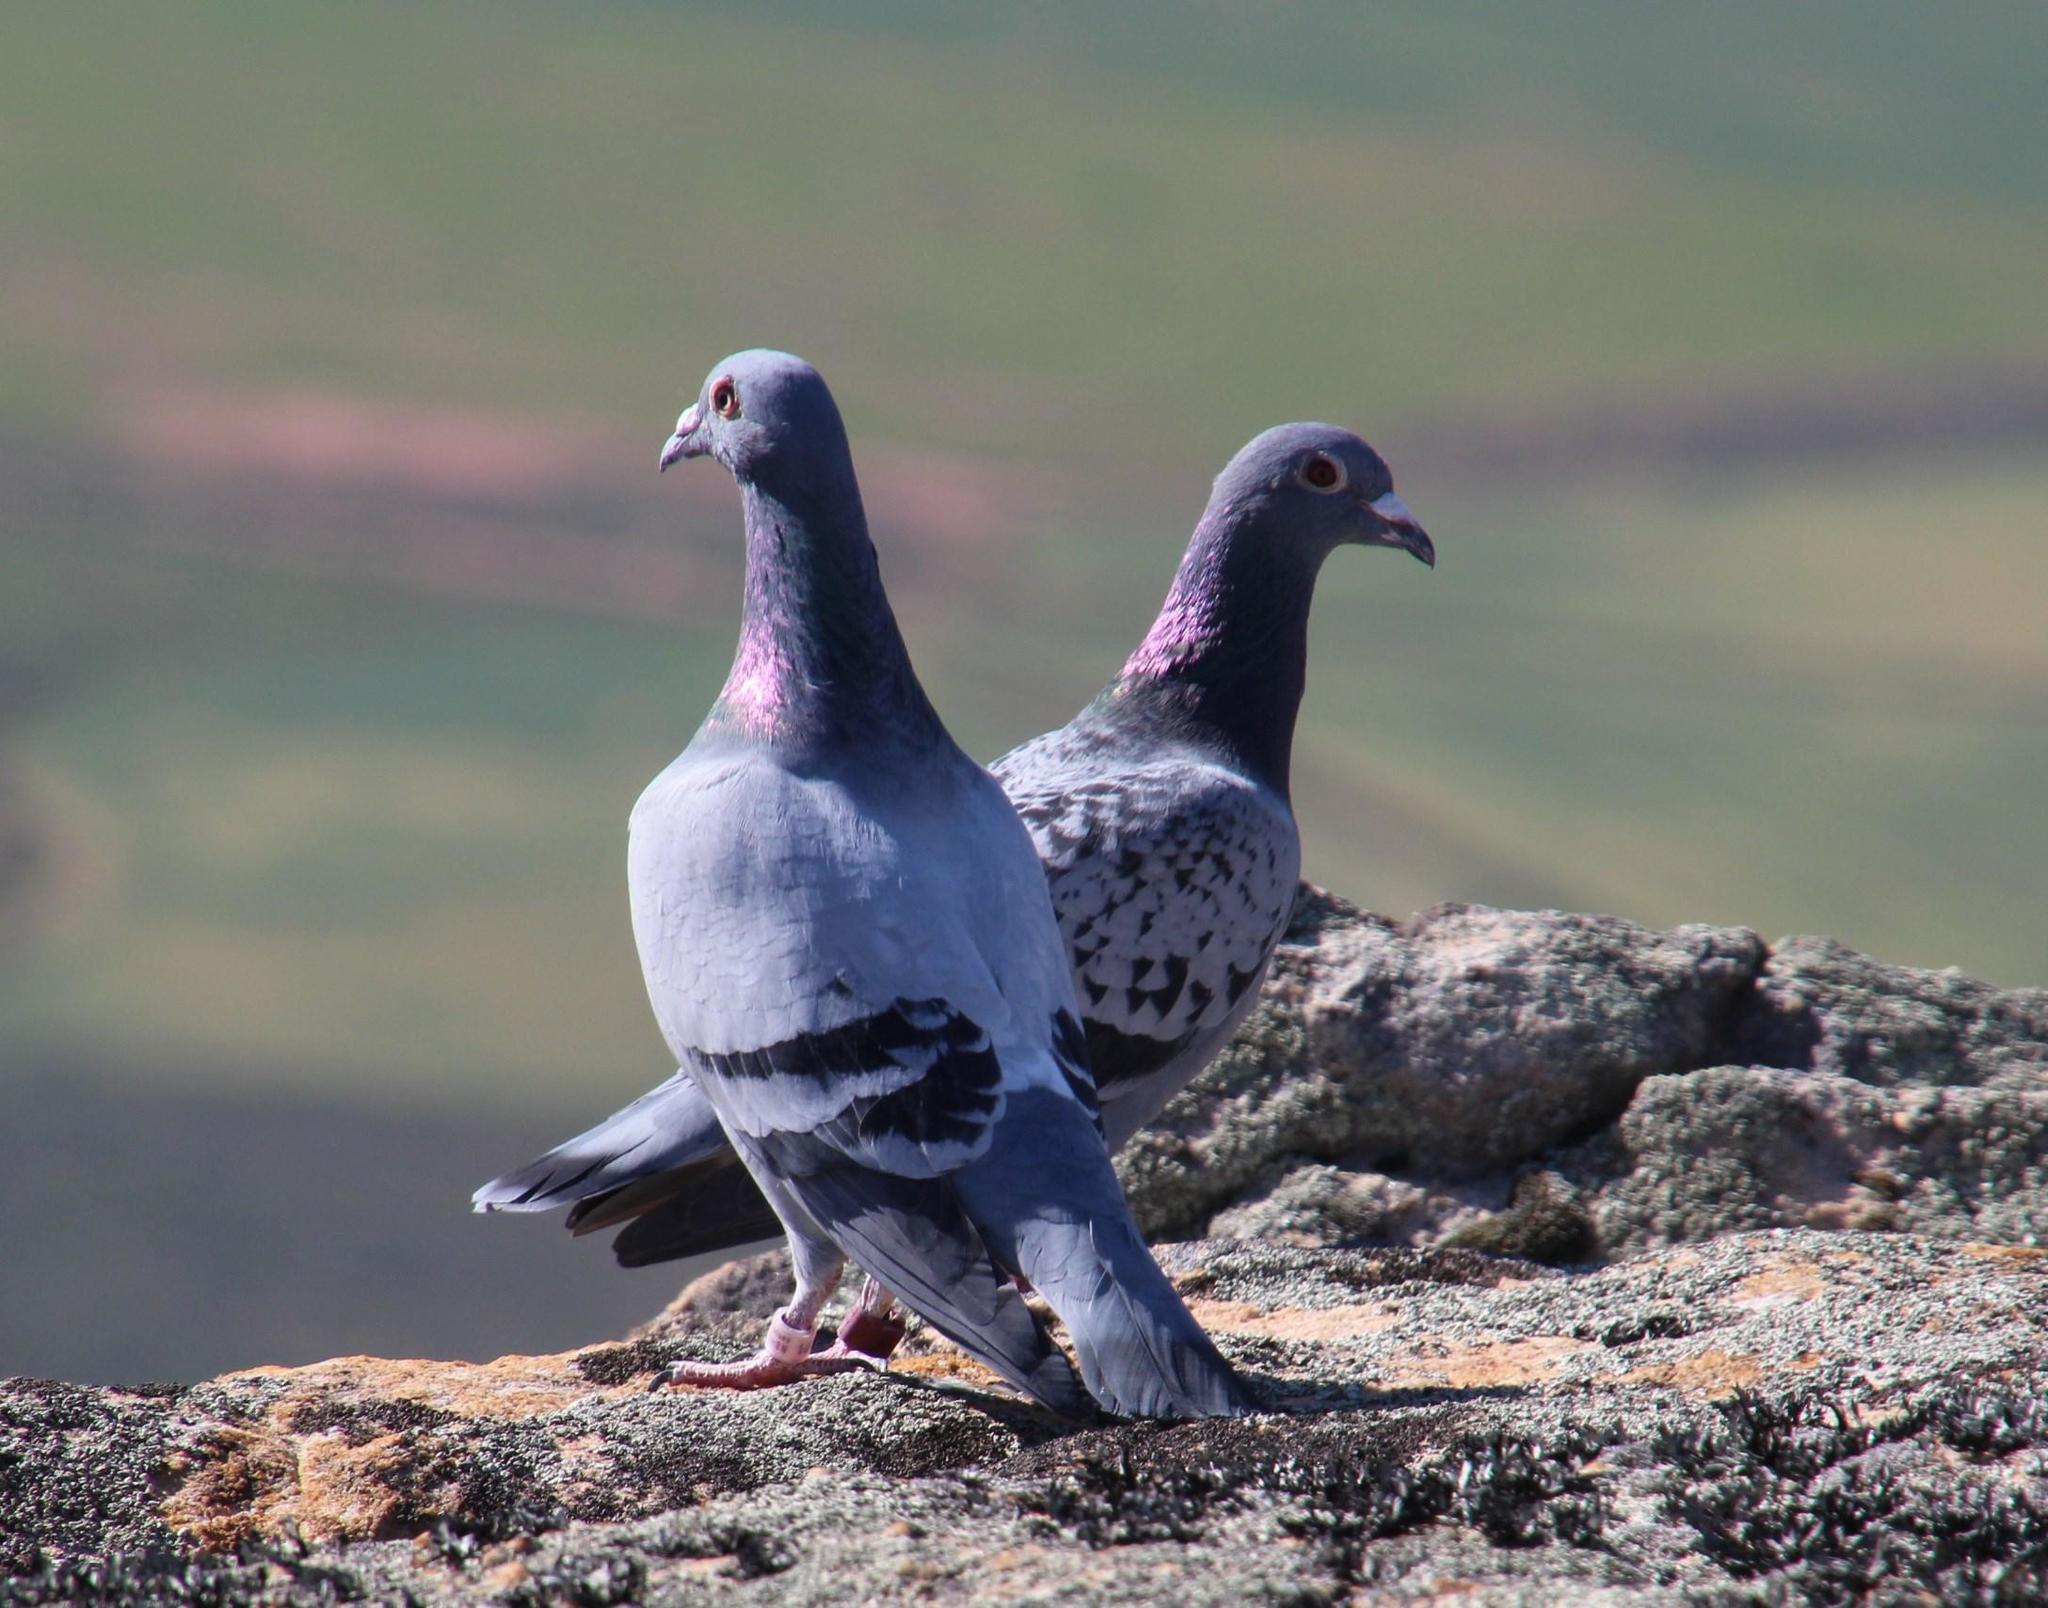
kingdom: Animalia
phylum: Chordata
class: Aves
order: Columbiformes
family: Columbidae
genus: Columba
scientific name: Columba livia
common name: Rock pigeon
